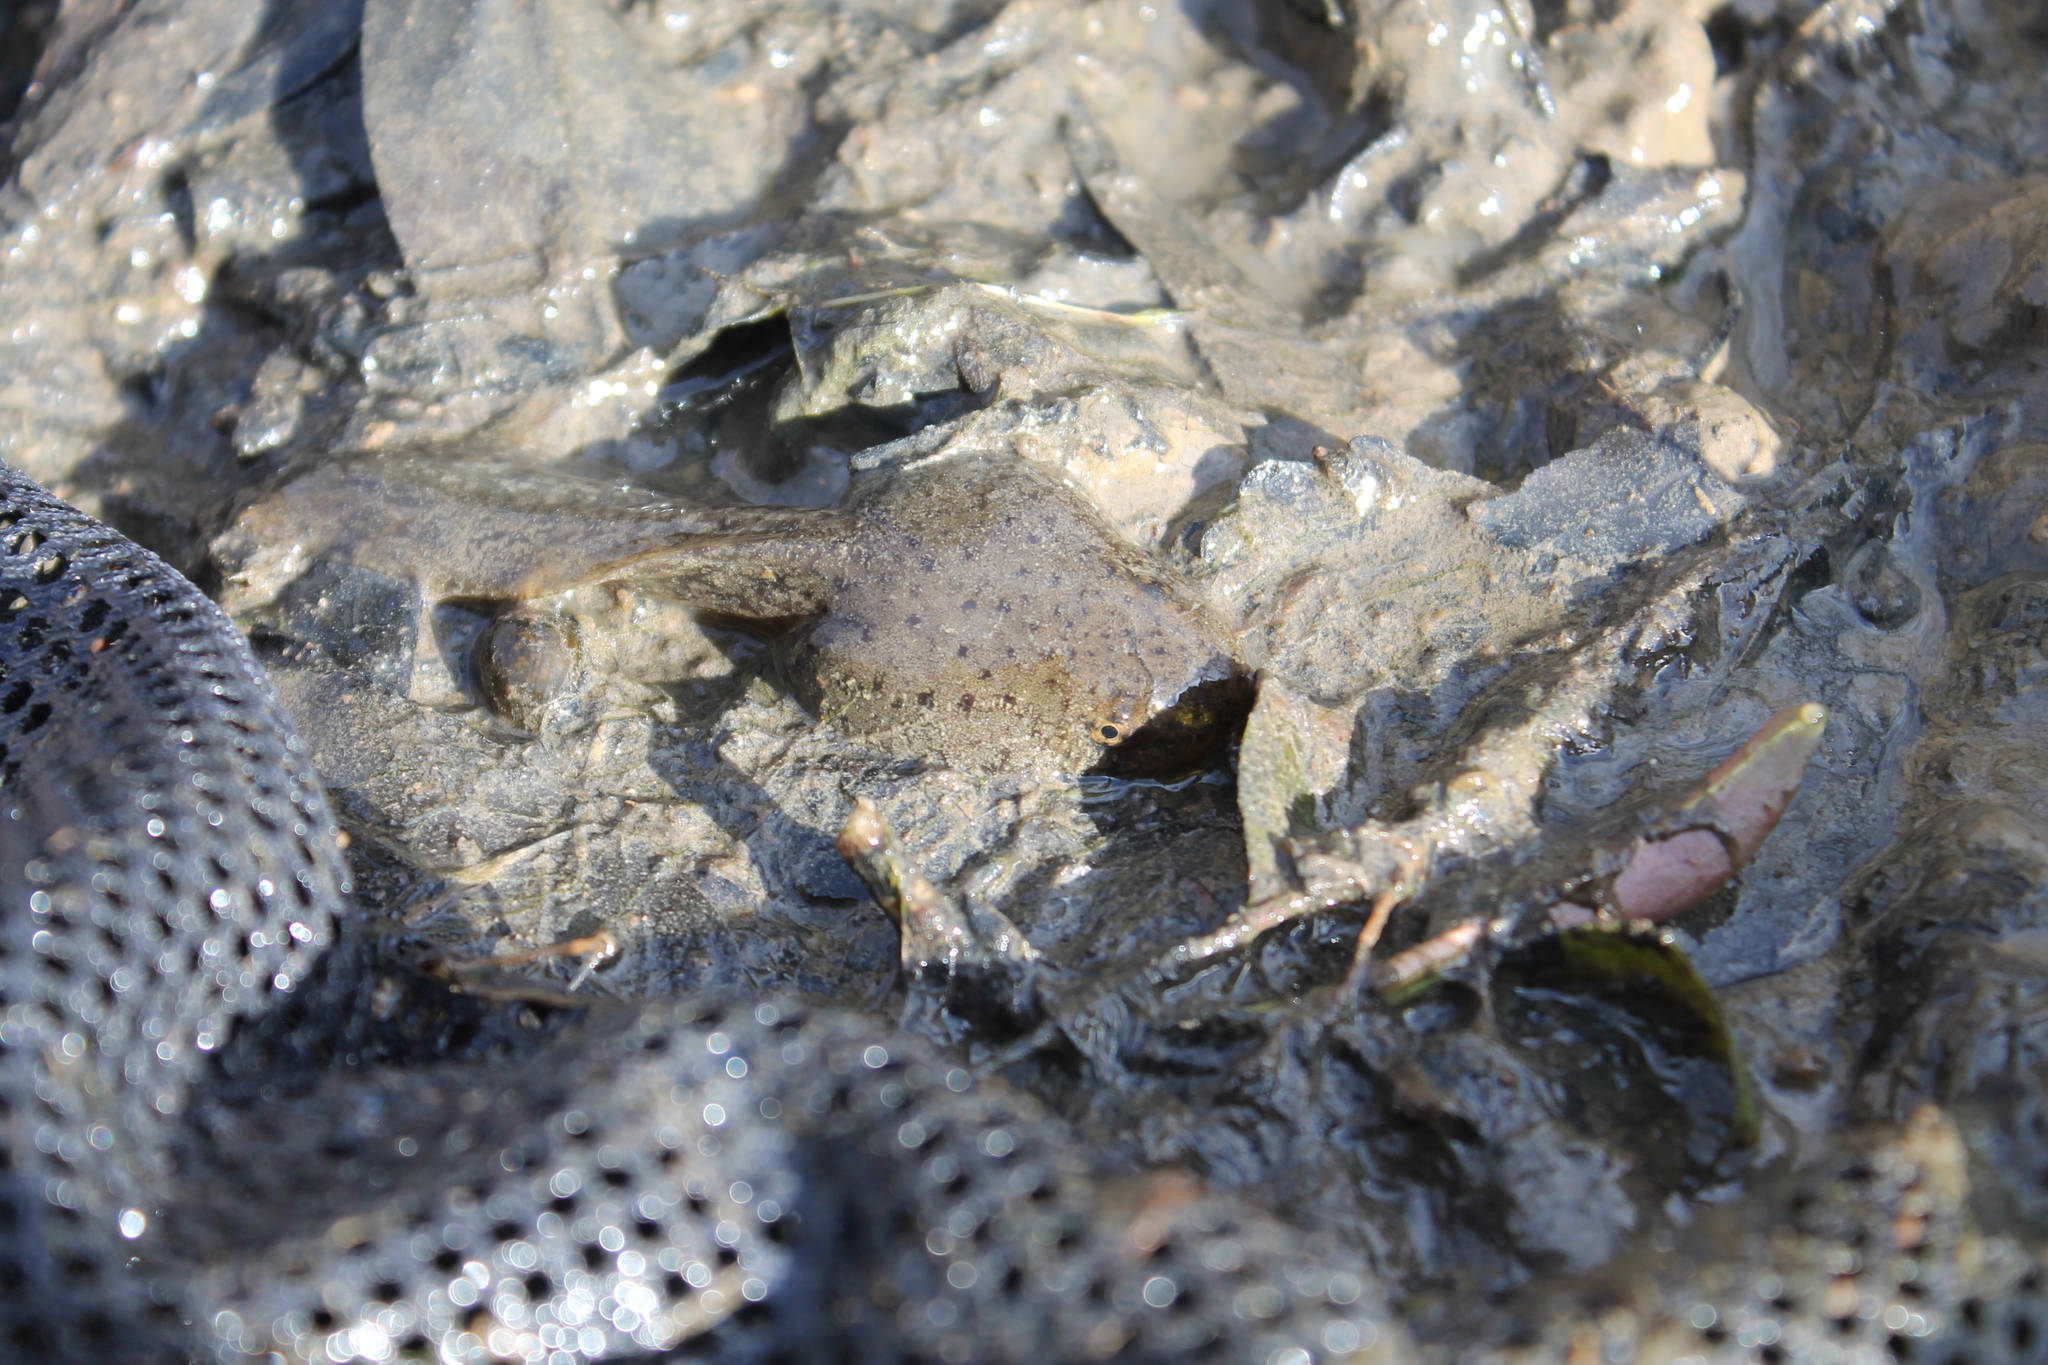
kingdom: Animalia
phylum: Chordata
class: Amphibia
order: Anura
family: Ranidae
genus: Lithobates
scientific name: Lithobates catesbeianus
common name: American bullfrog
